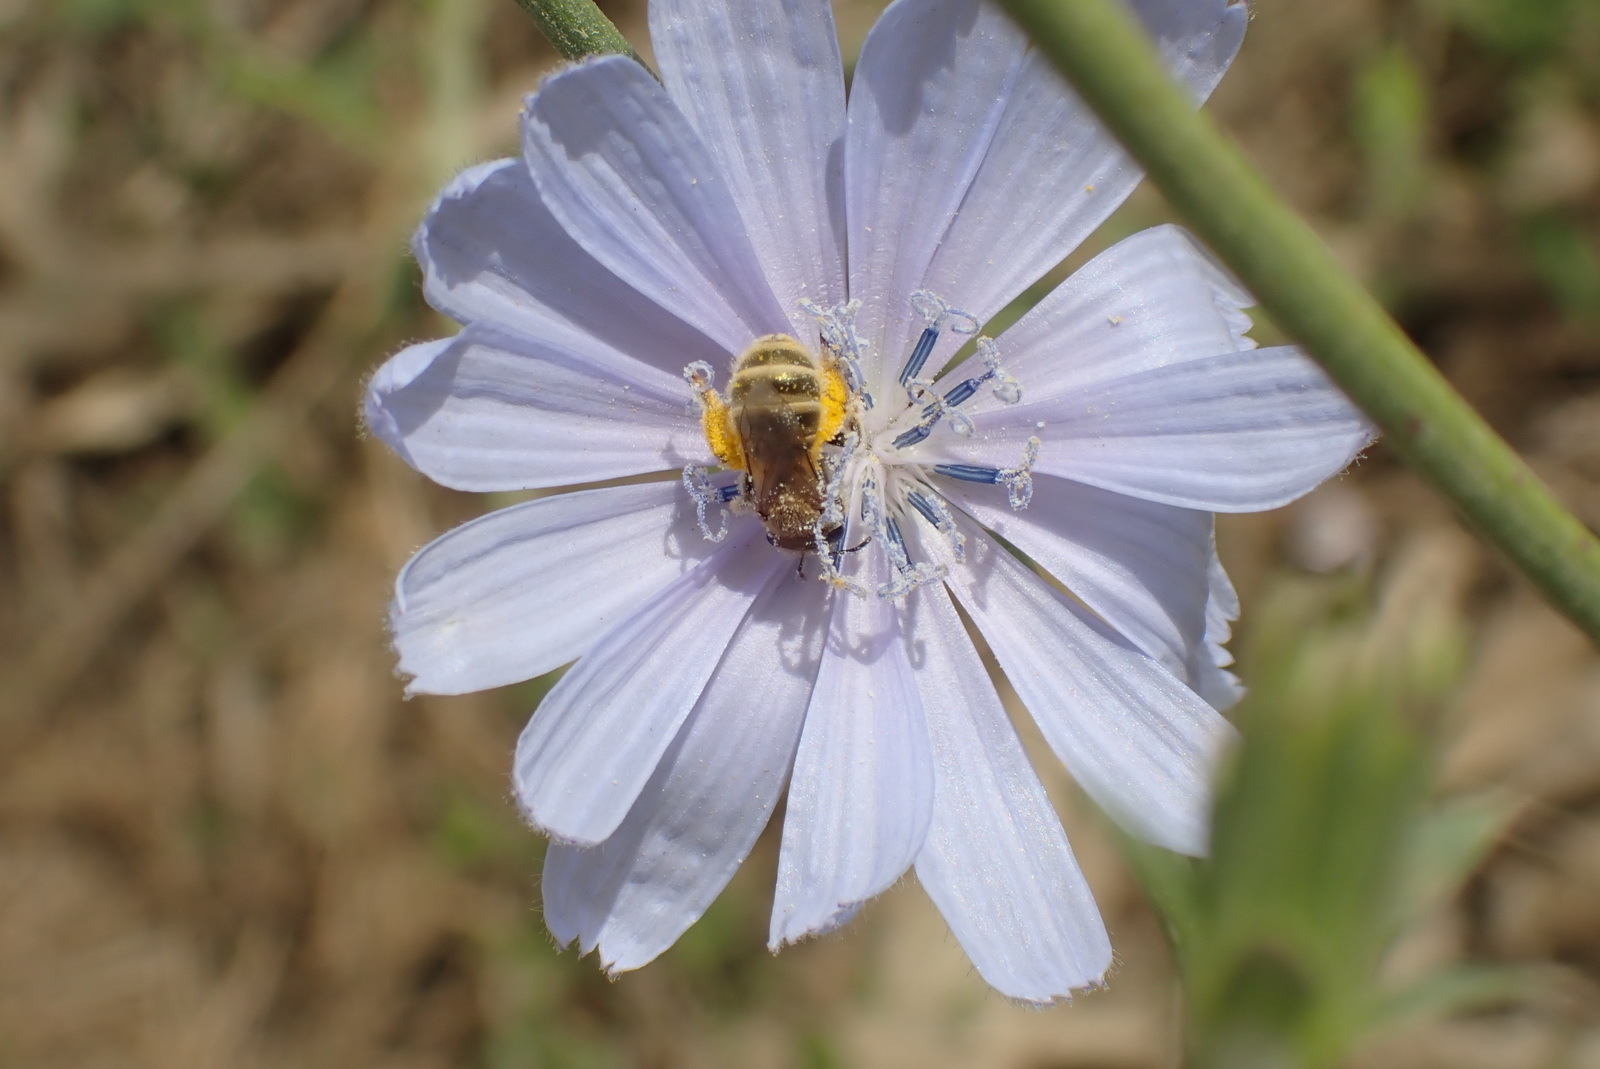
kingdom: Plantae
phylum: Tracheophyta
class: Magnoliopsida
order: Asterales
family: Asteraceae
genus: Cichorium
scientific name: Cichorium intybus
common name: Chicory
